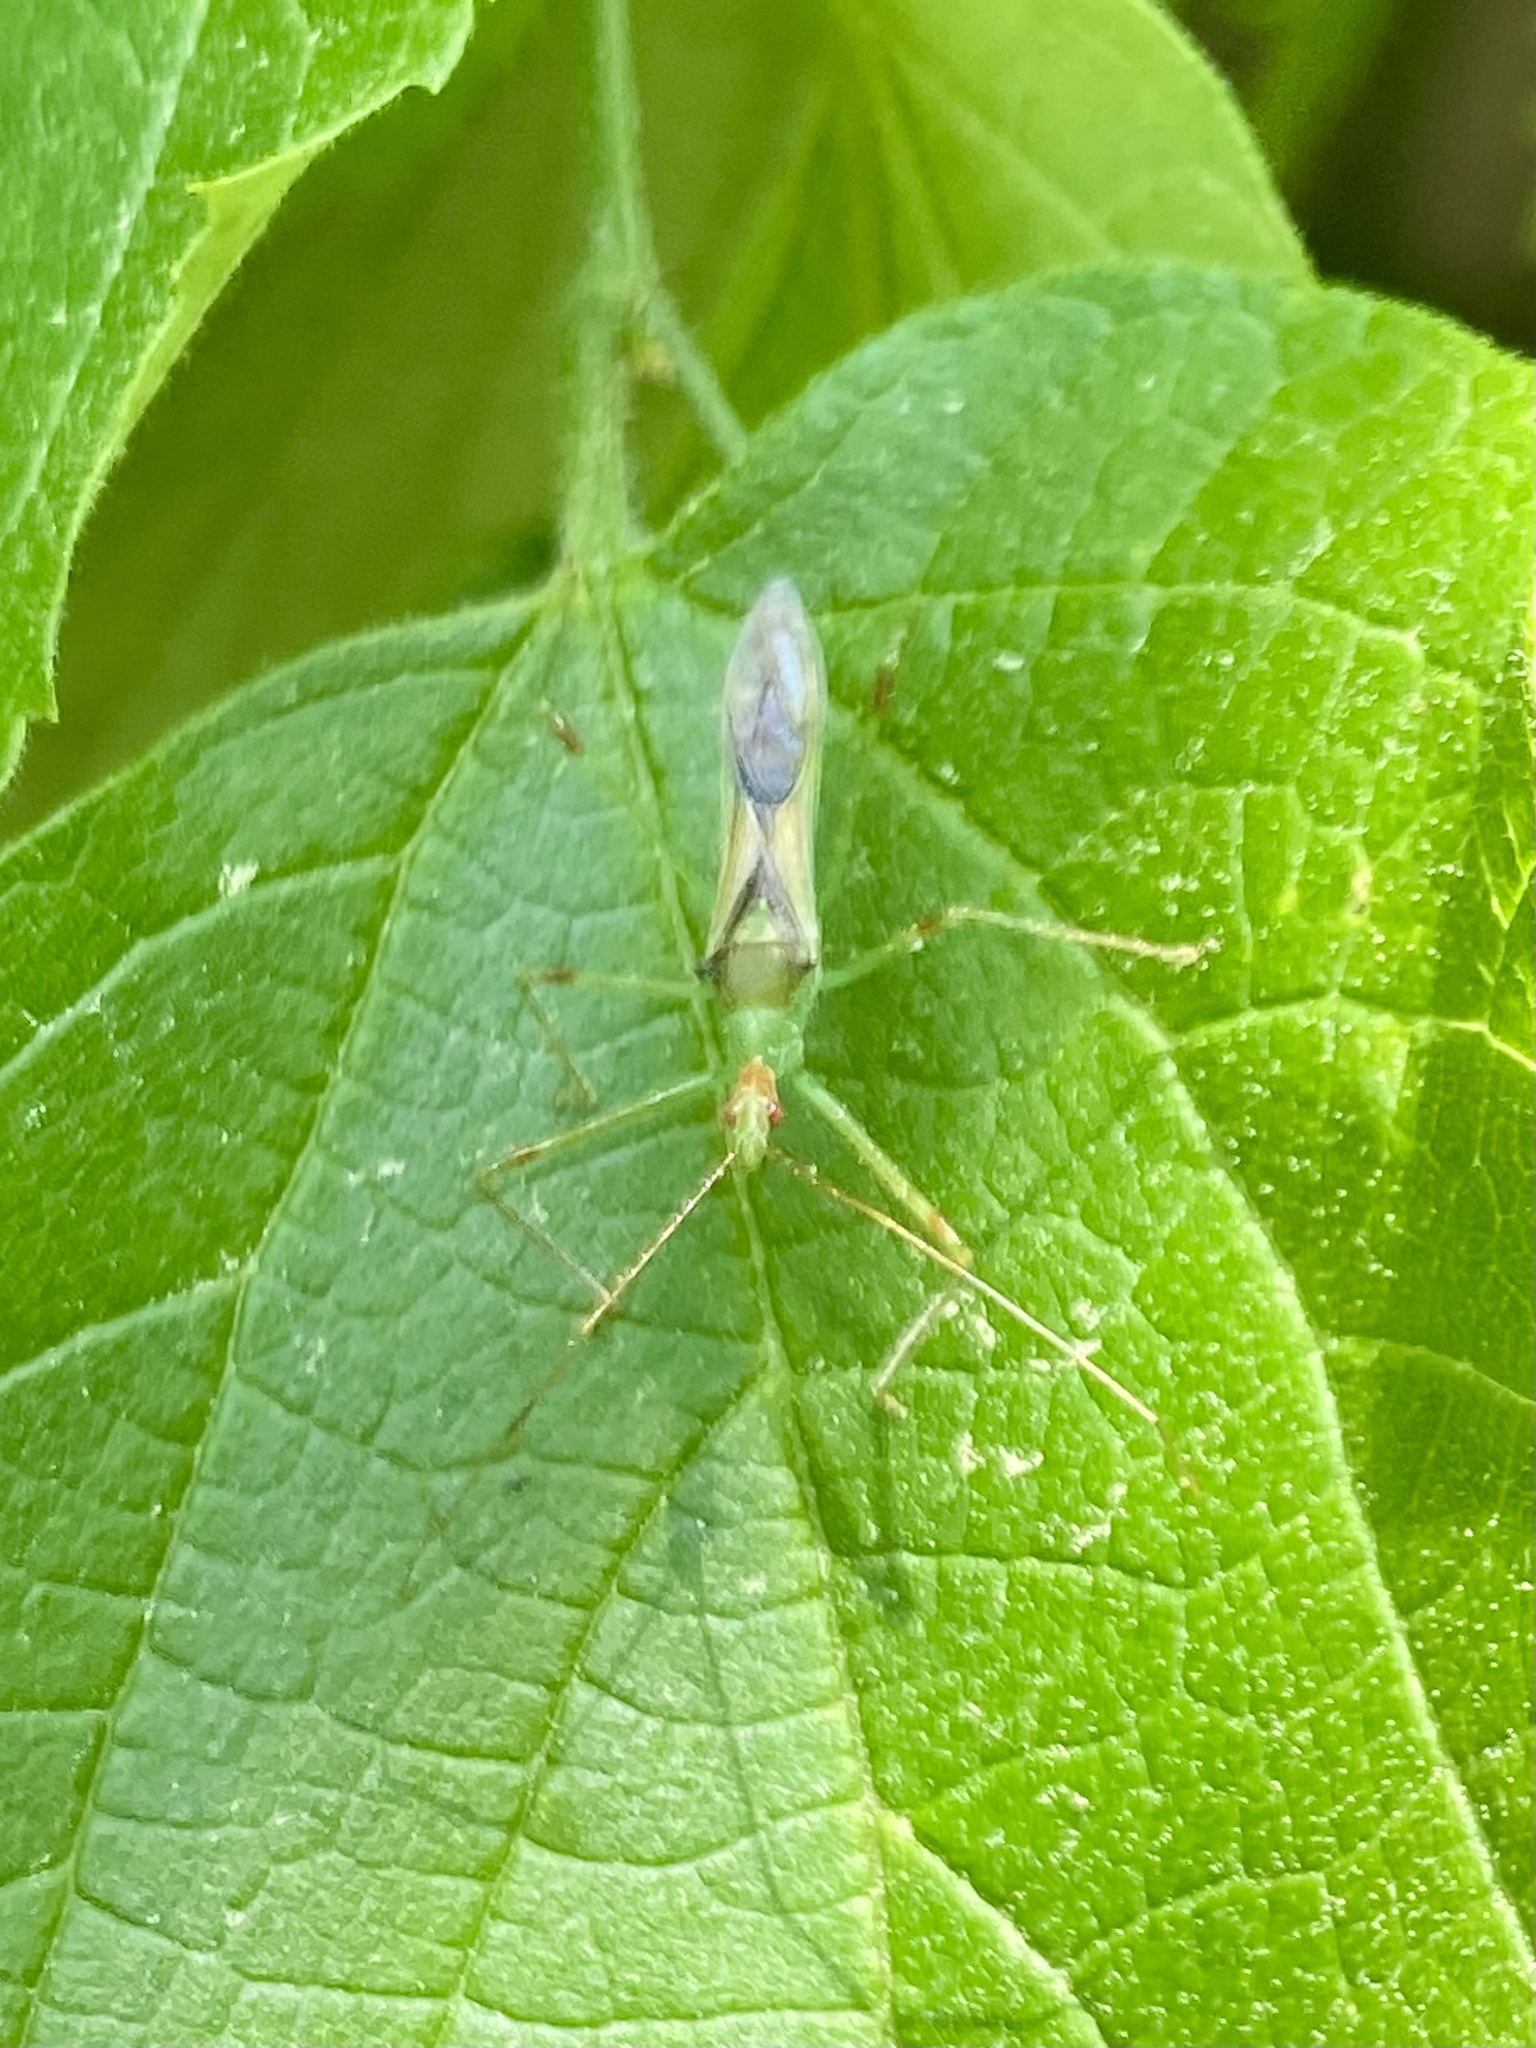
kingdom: Animalia
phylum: Arthropoda
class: Insecta
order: Hemiptera
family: Reduviidae
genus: Zelus
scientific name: Zelus luridus
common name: Pale green assassin bug
